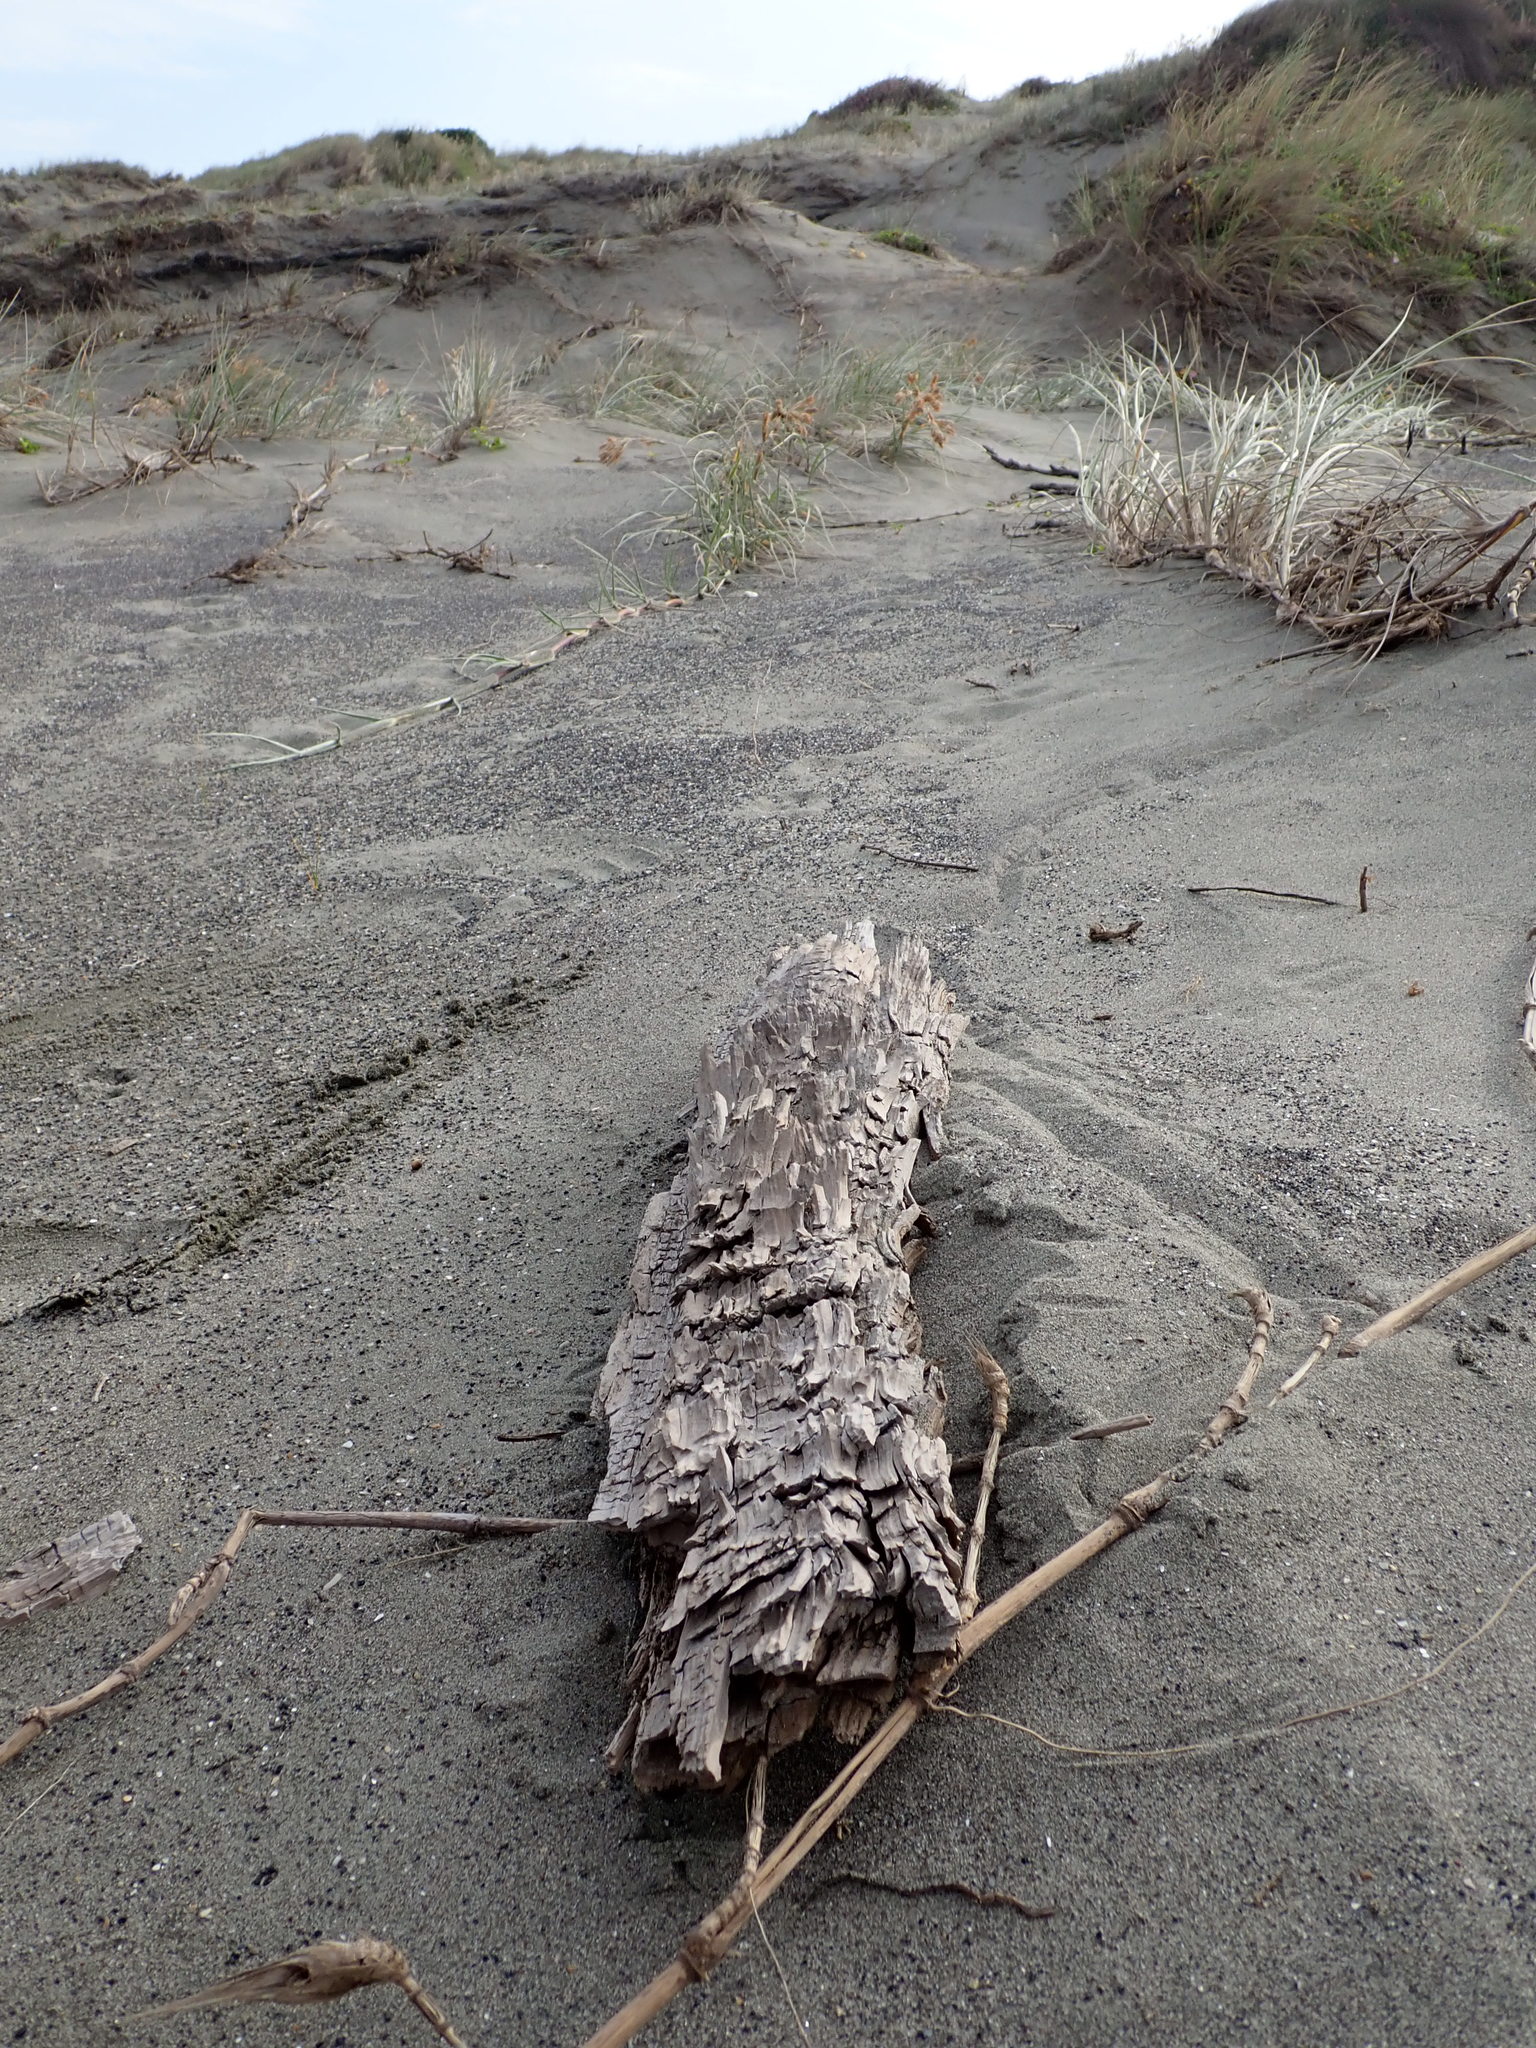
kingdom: Animalia
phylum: Arthropoda
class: Arachnida
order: Araneae
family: Theridiidae
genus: Latrodectus
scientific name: Latrodectus katipo
